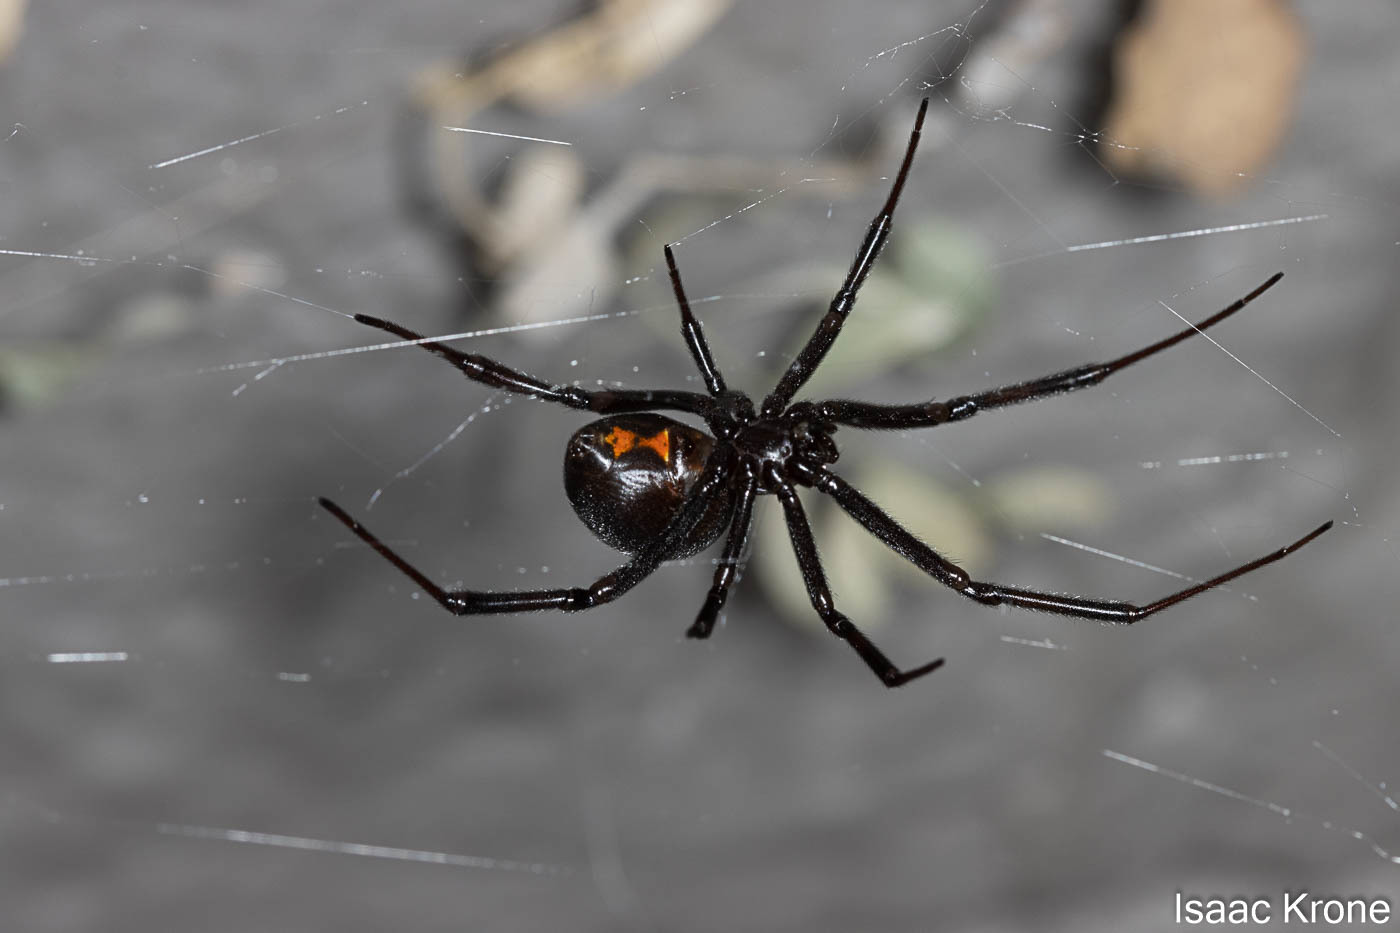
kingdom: Animalia
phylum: Arthropoda
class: Arachnida
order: Araneae
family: Theridiidae
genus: Latrodectus
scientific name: Latrodectus hesperus
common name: Western black widow
